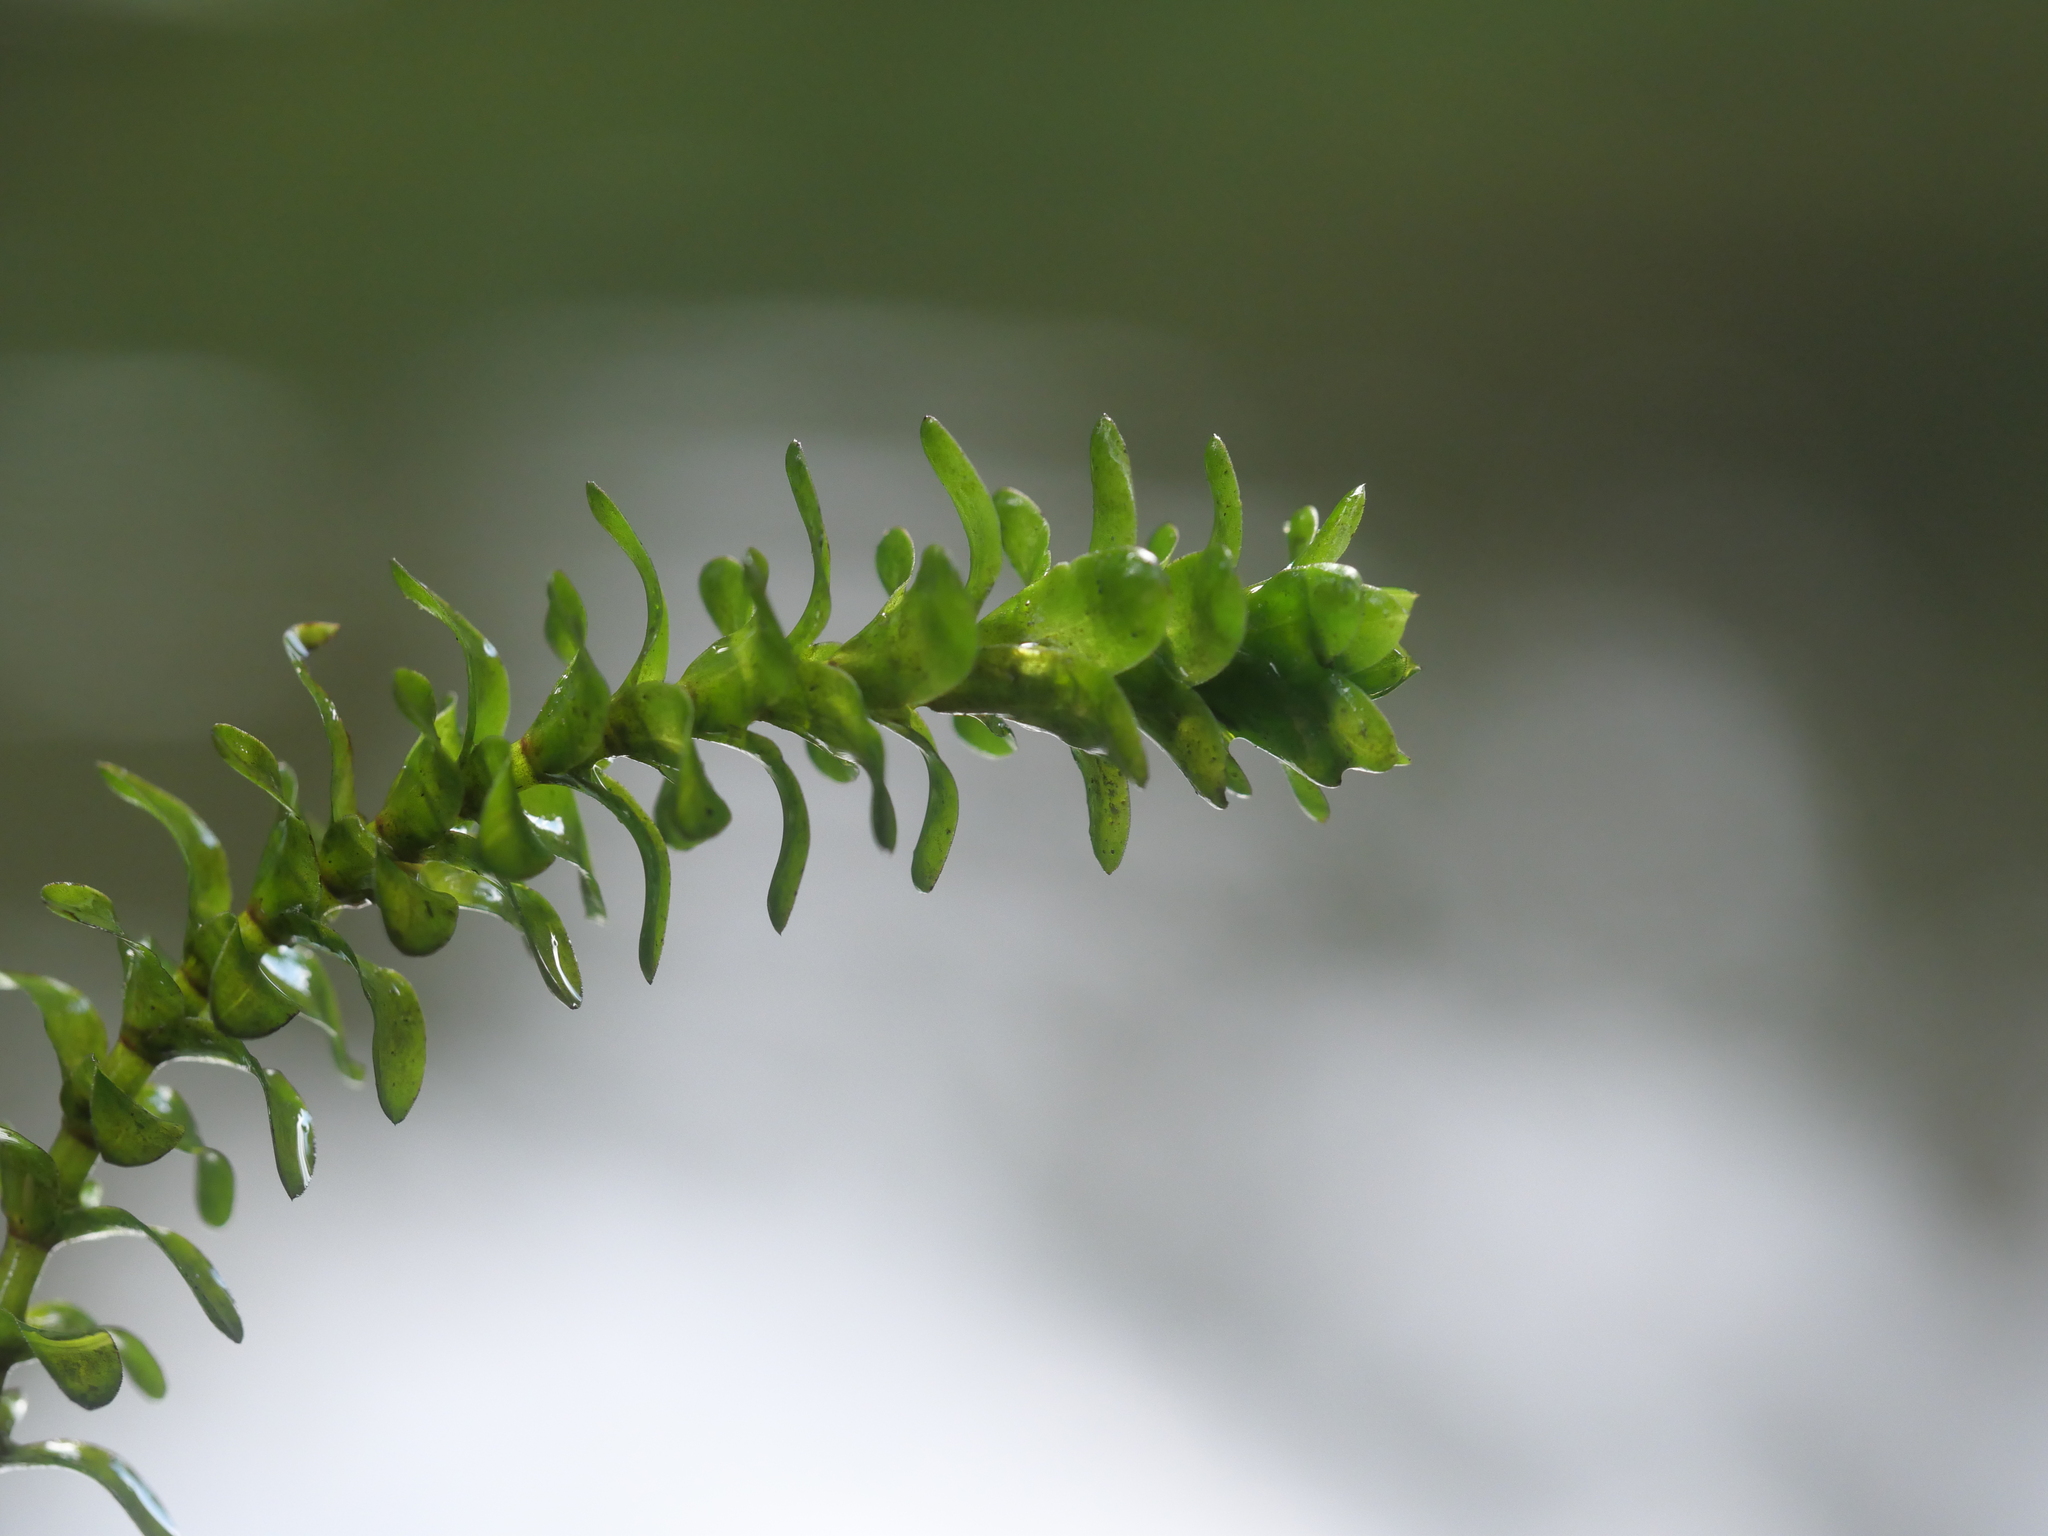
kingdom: Plantae
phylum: Tracheophyta
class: Liliopsida
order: Alismatales
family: Hydrocharitaceae
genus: Elodea
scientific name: Elodea canadensis
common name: Canadian waterweed
